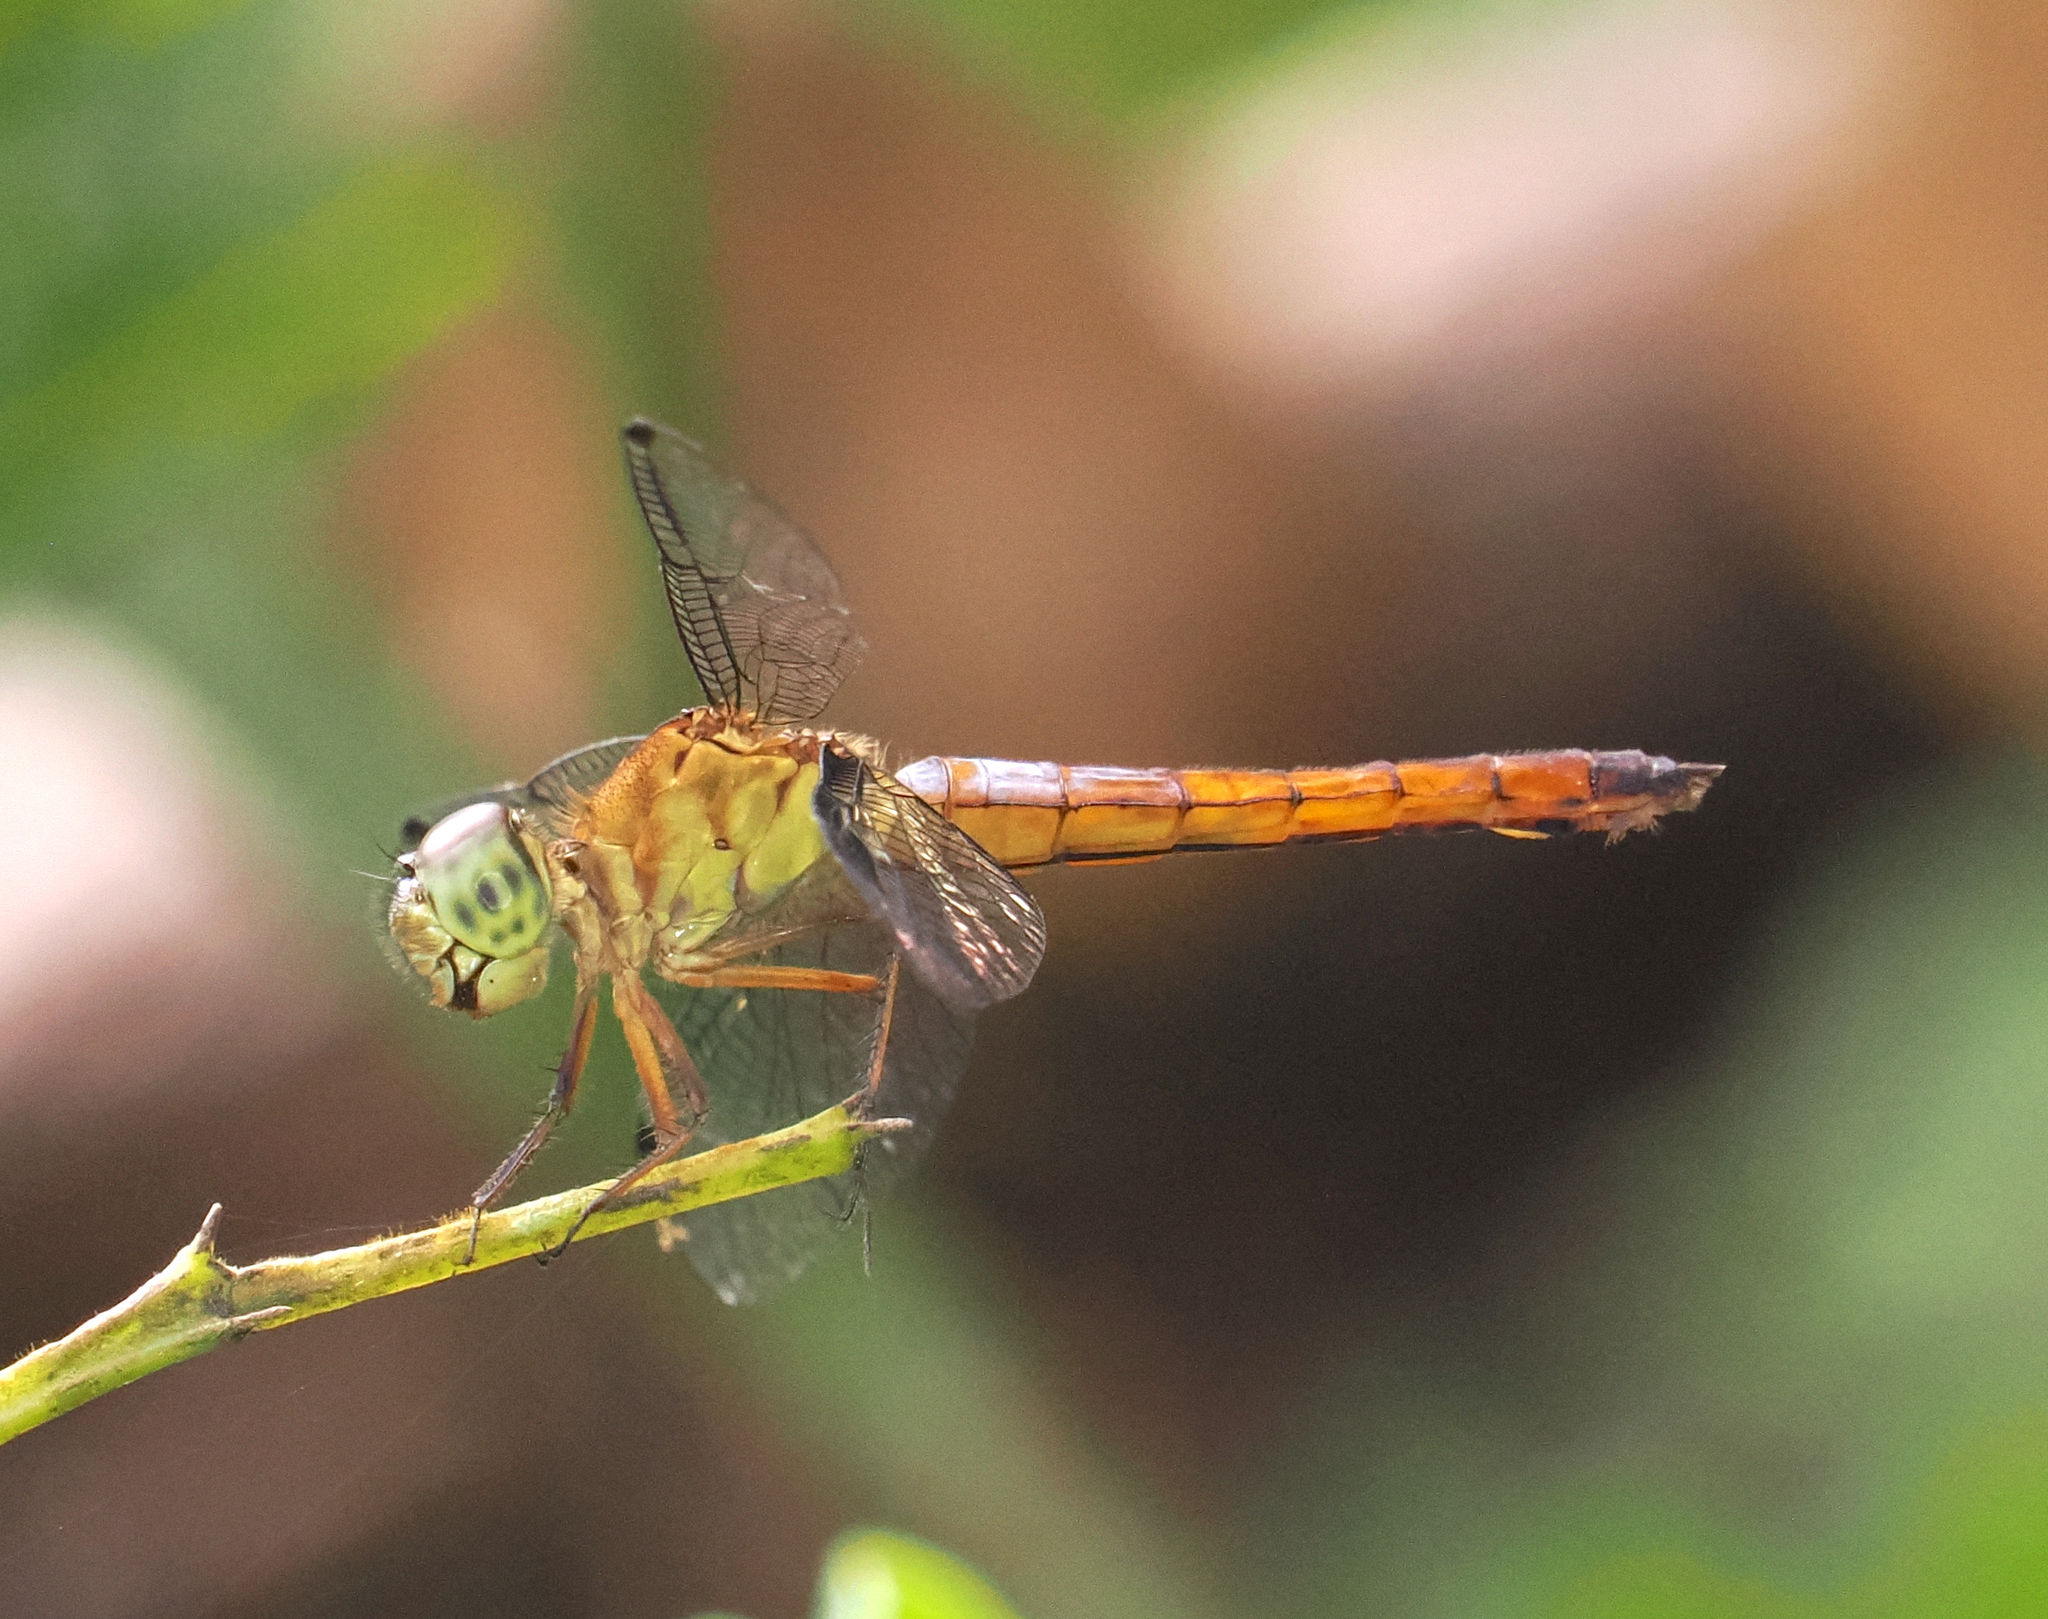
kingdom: Animalia
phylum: Arthropoda
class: Insecta
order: Odonata
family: Libellulidae
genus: Orchithemis
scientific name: Orchithemis pulcherrima
